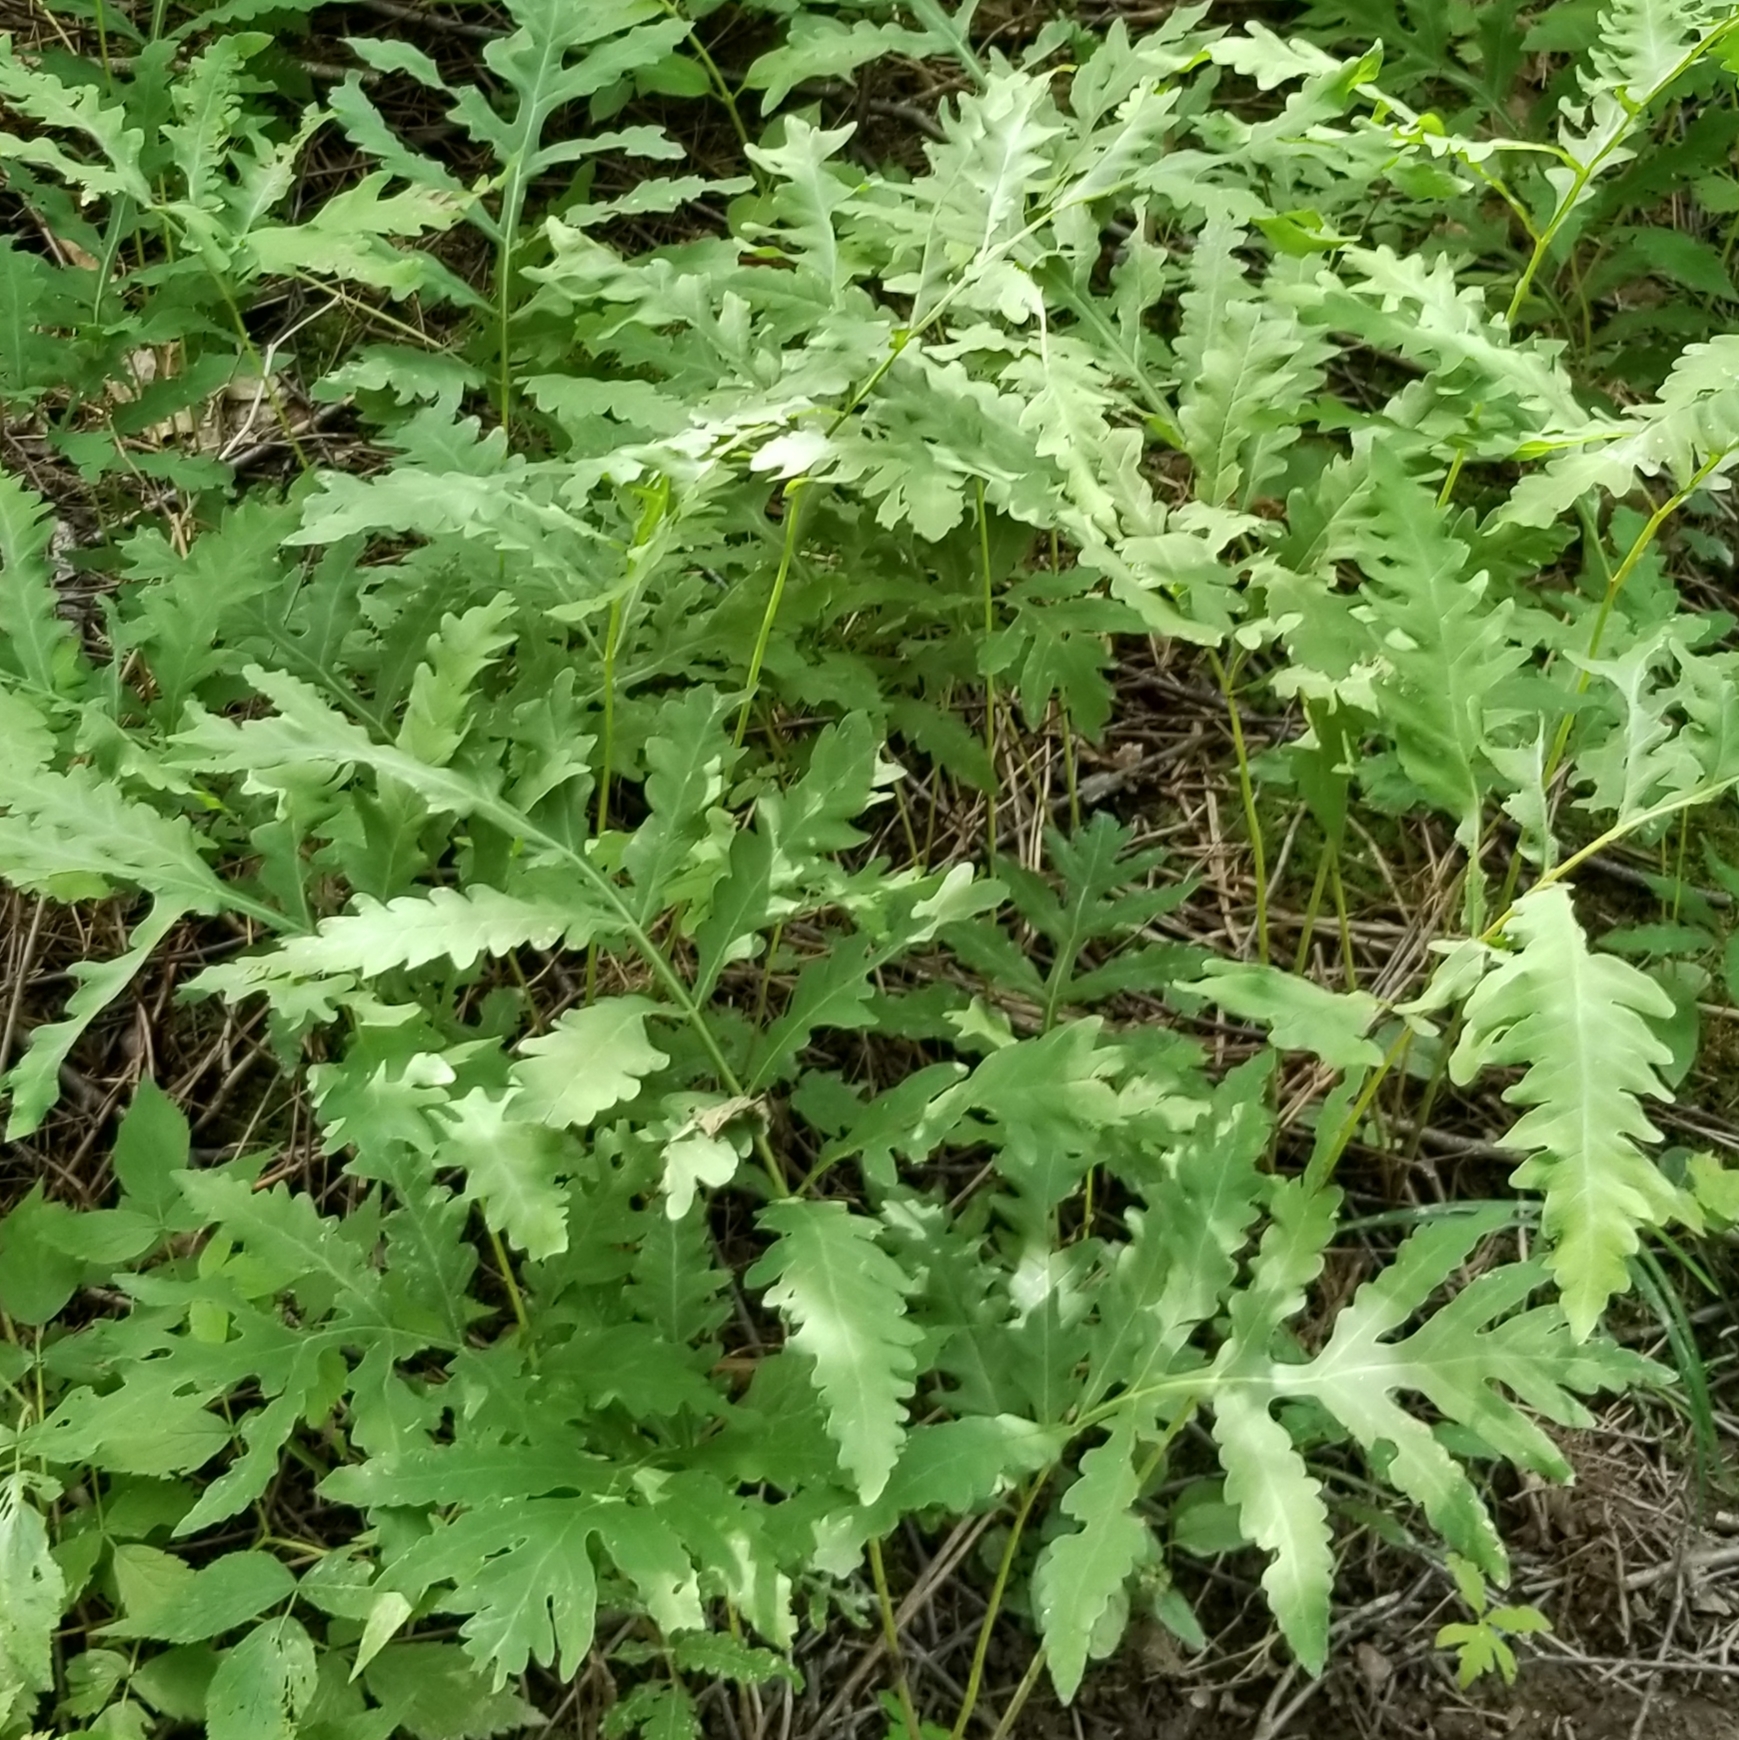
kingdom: Plantae
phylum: Tracheophyta
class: Polypodiopsida
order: Polypodiales
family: Onocleaceae
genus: Onoclea
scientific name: Onoclea sensibilis
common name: Sensitive fern
